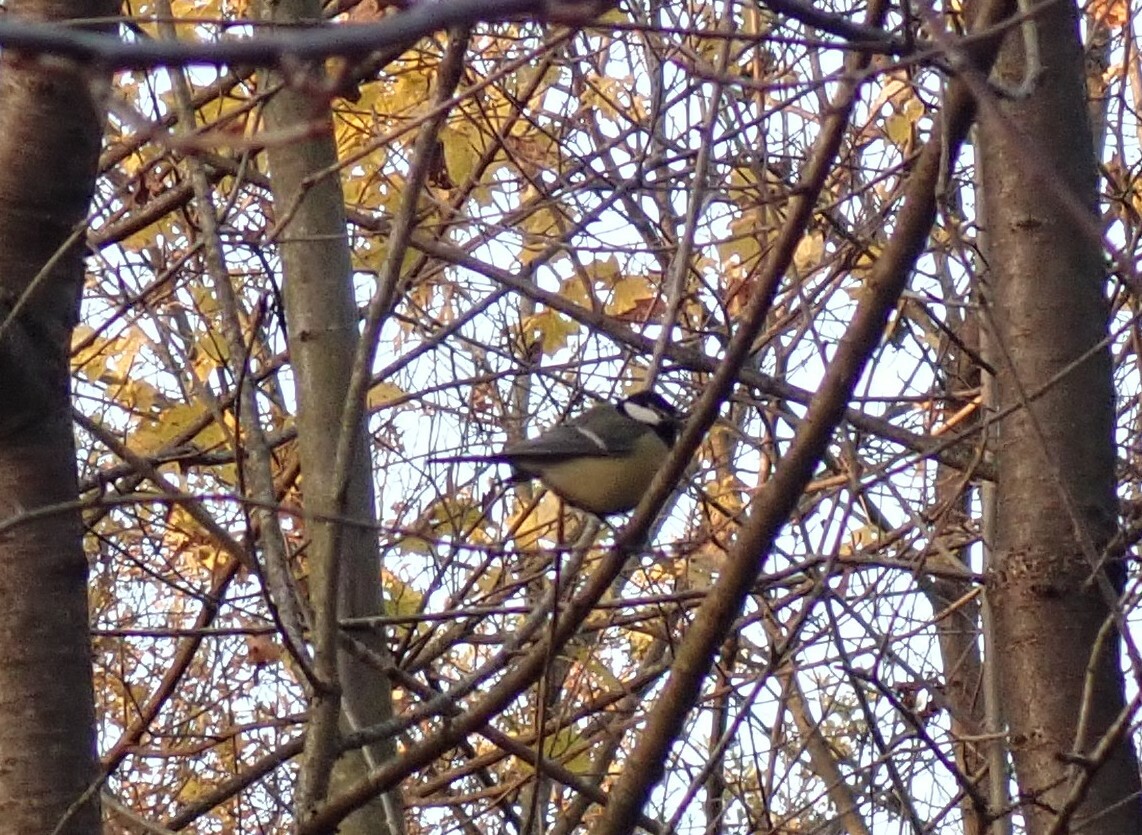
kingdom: Animalia
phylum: Chordata
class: Aves
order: Passeriformes
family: Paridae
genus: Parus
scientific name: Parus major
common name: Great tit
